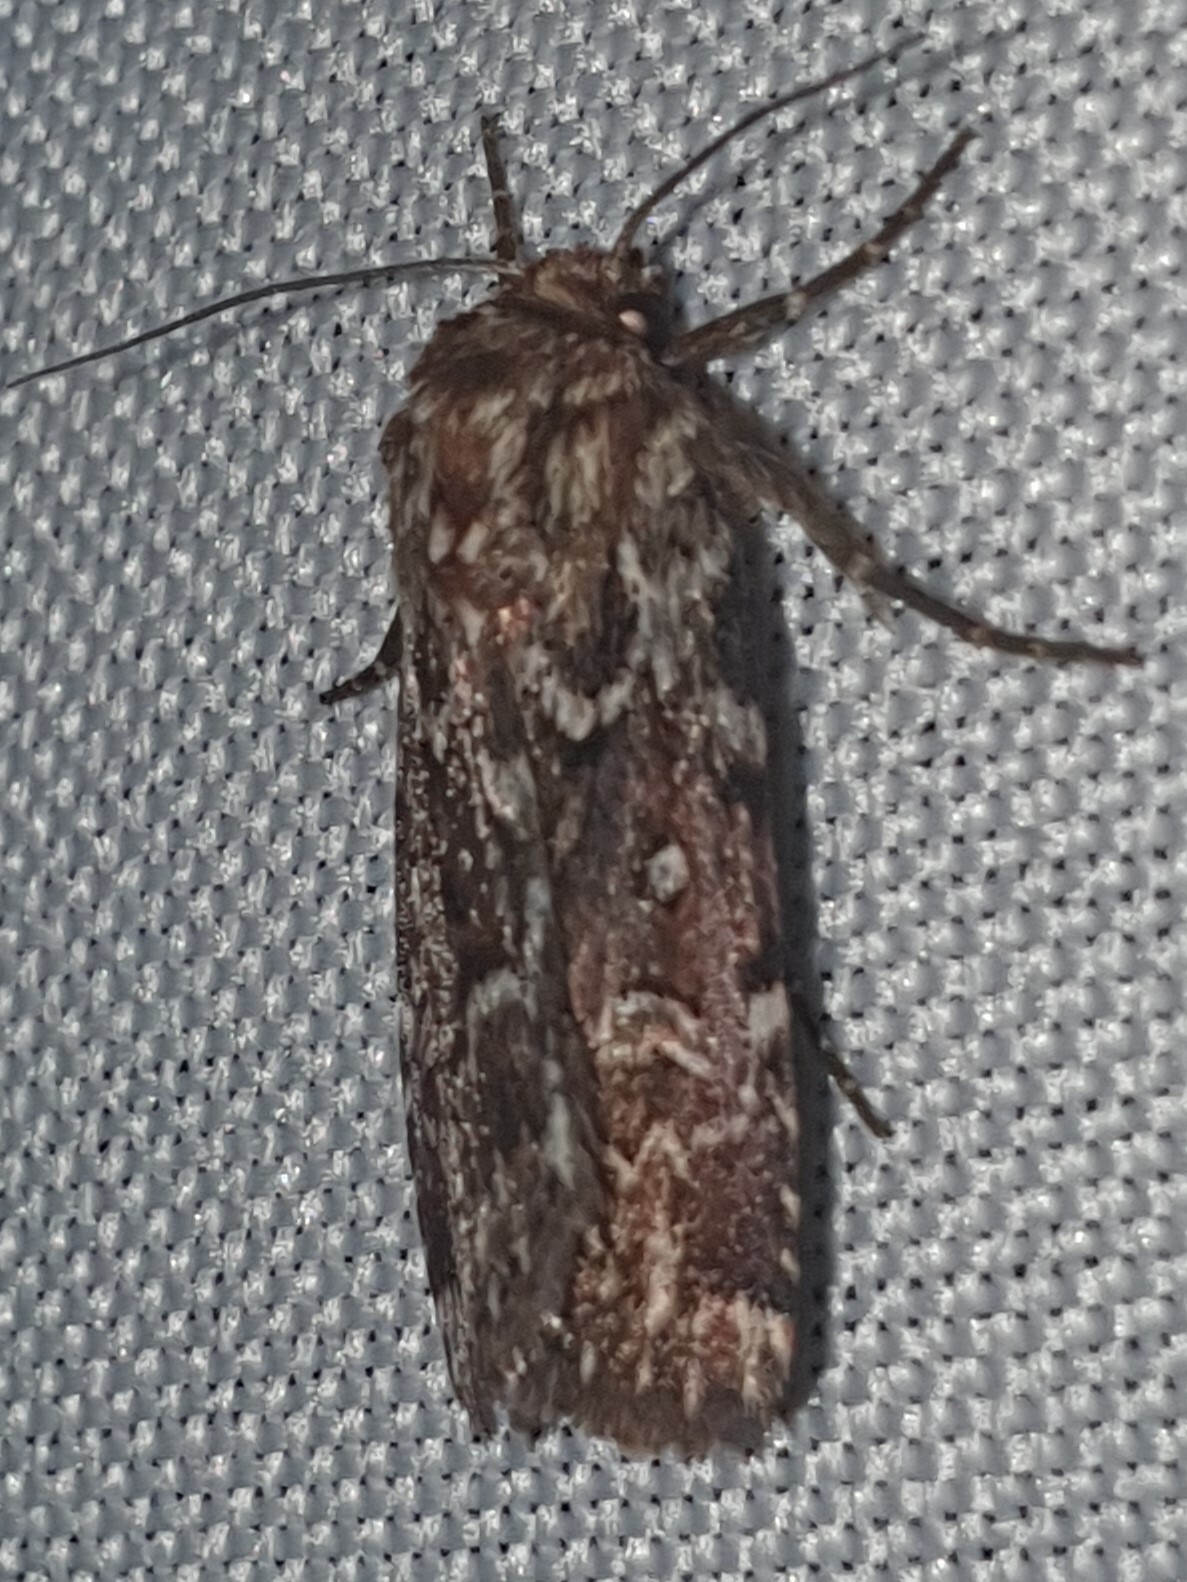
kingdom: Animalia
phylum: Arthropoda
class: Insecta
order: Lepidoptera
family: Noctuidae
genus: Lycophotia
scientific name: Lycophotia porphyrea
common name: True lover's knot
